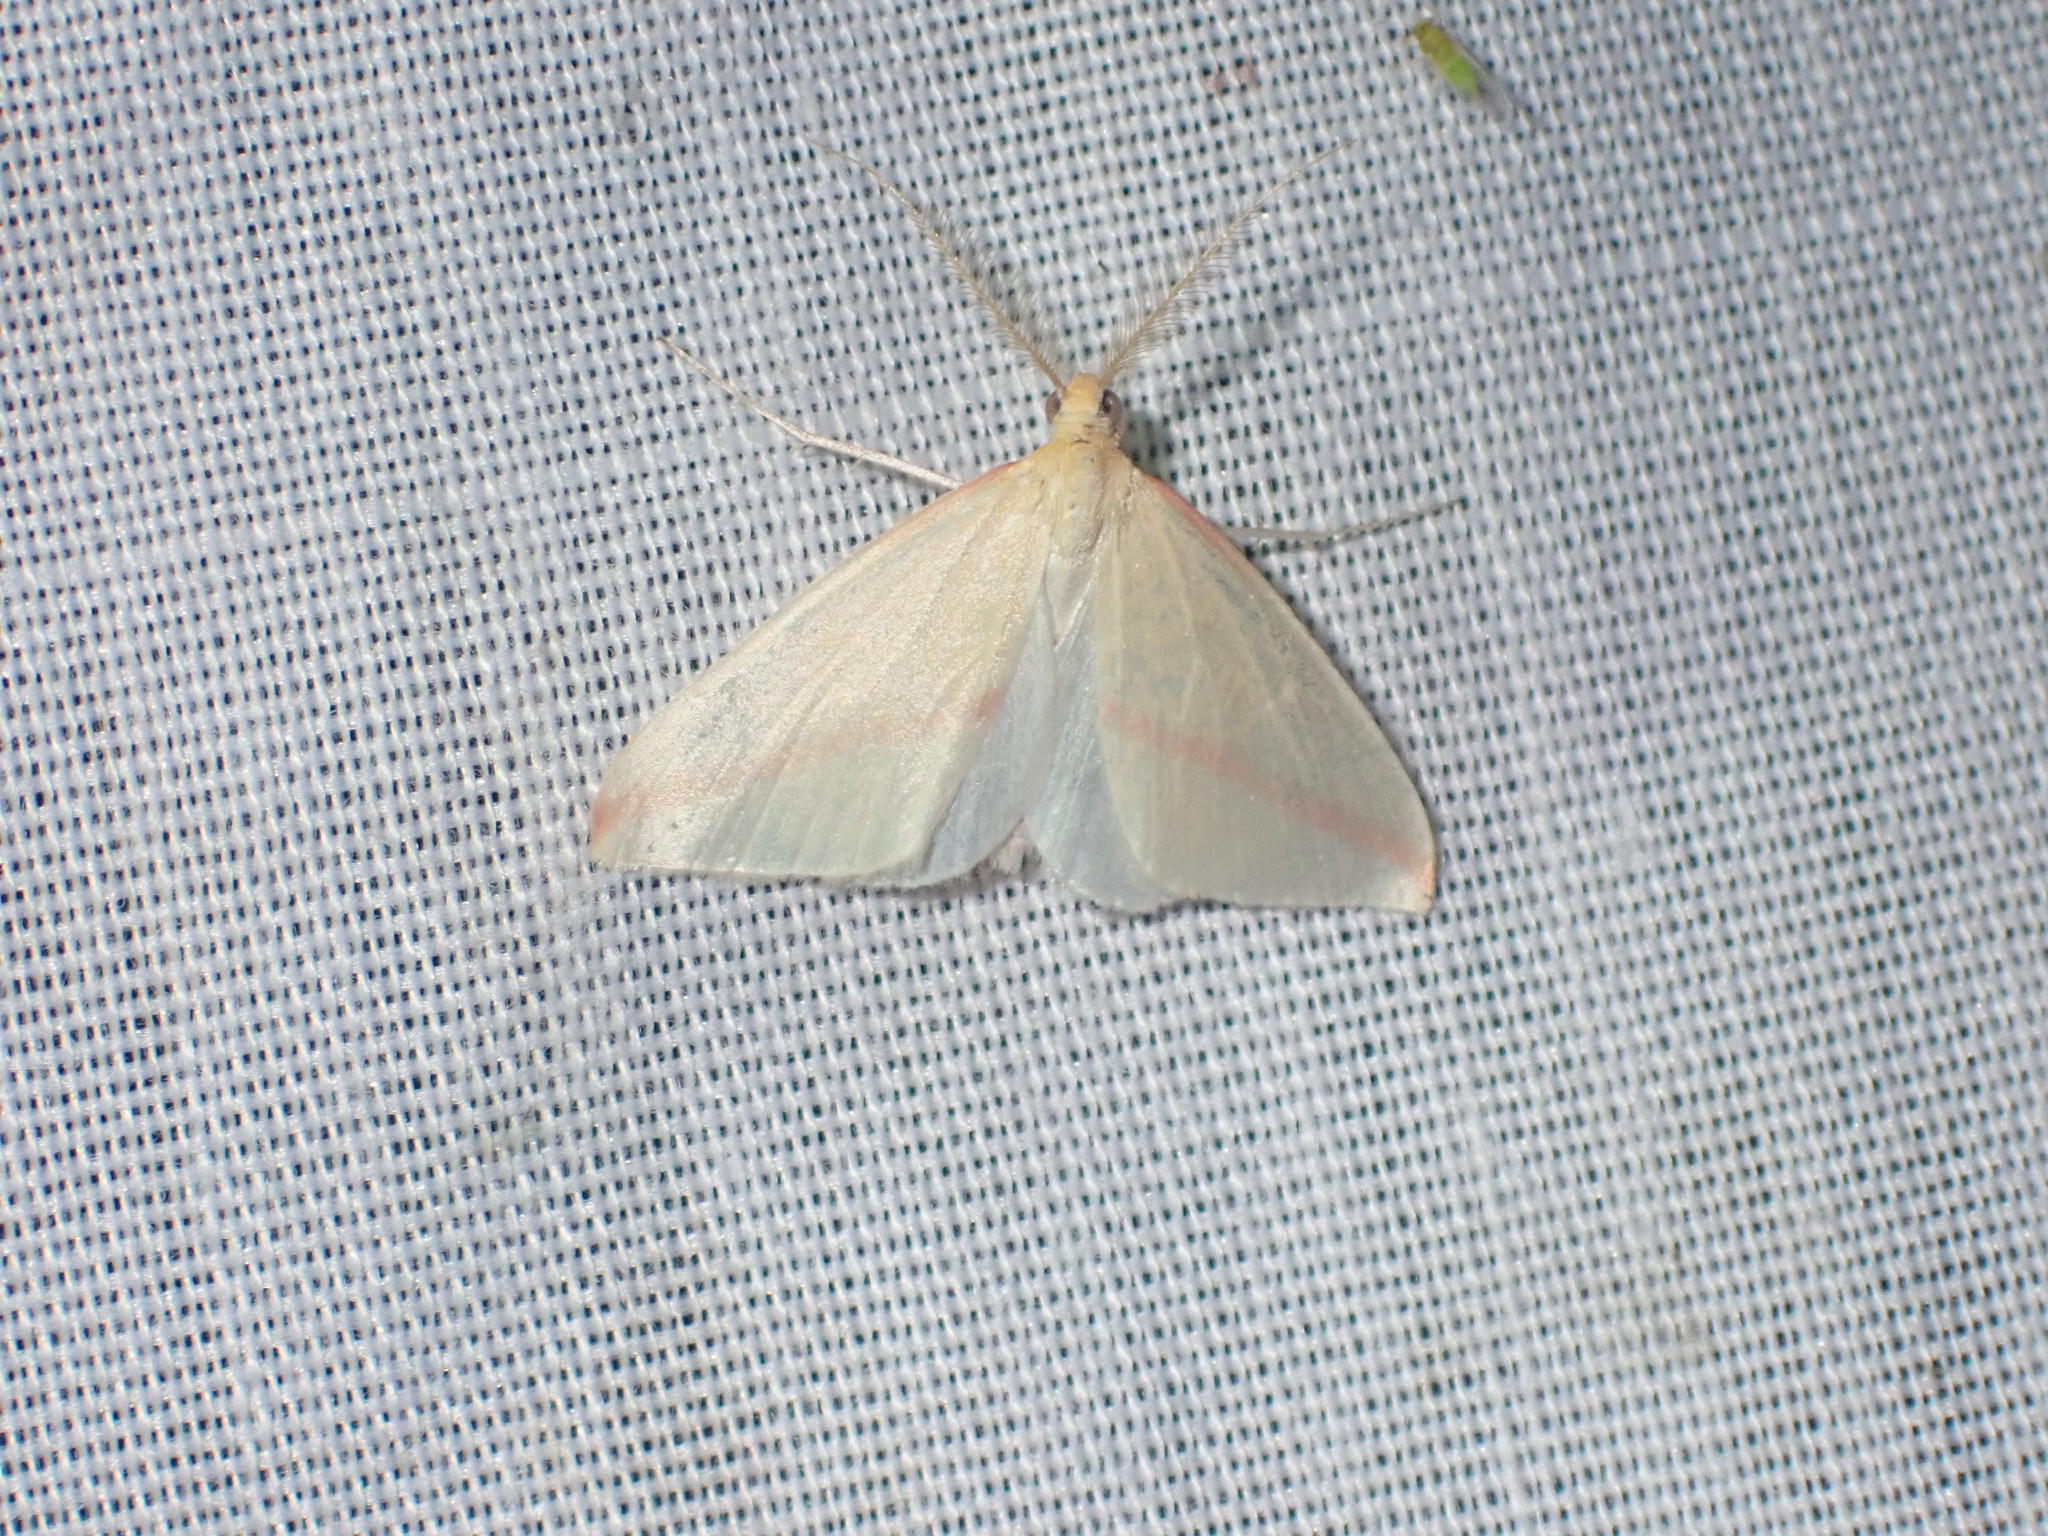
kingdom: Animalia
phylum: Arthropoda
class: Insecta
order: Lepidoptera
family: Geometridae
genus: Rhodometra
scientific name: Rhodometra sacraria
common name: Vestal
